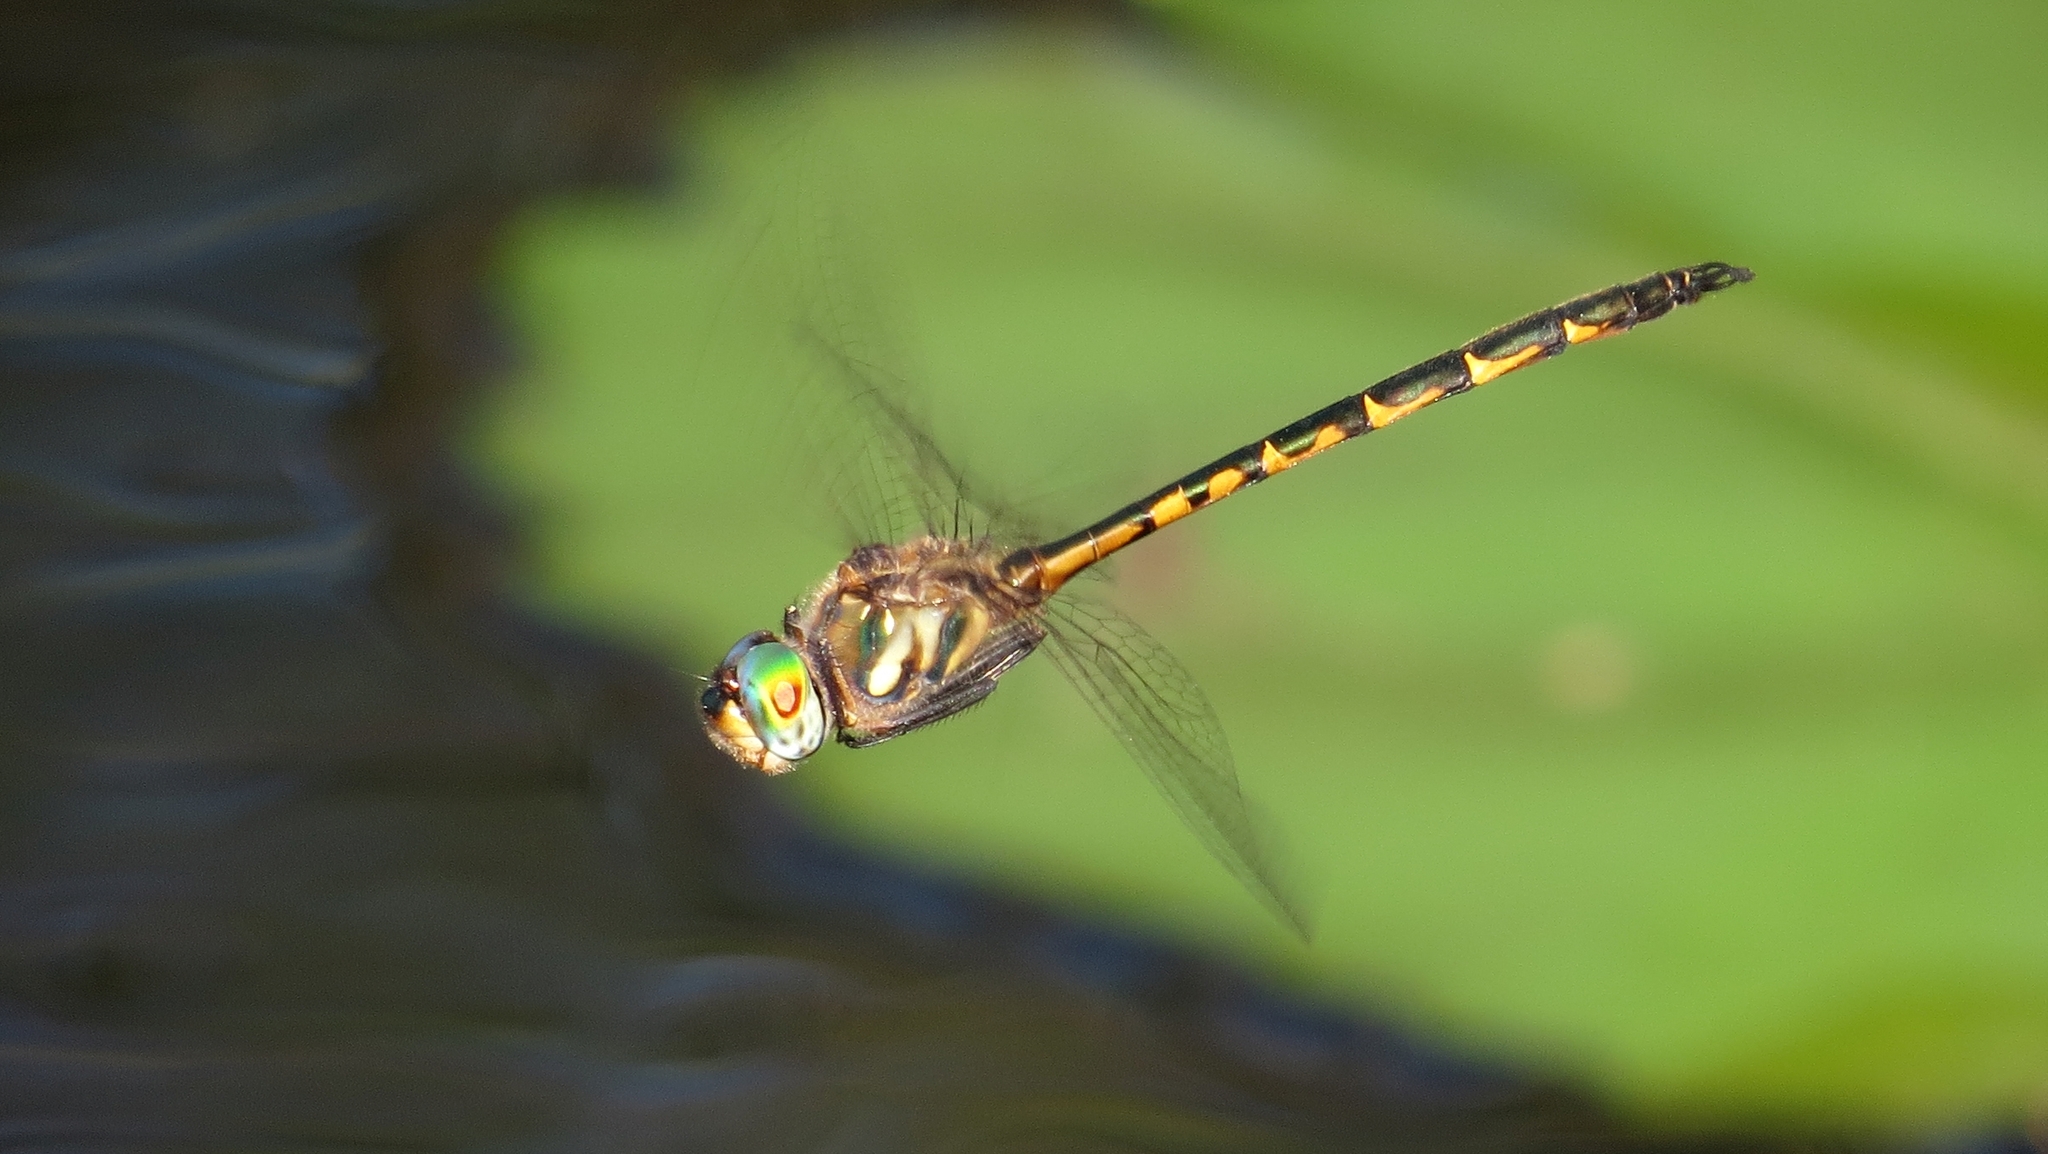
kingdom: Animalia
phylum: Arthropoda
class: Insecta
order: Odonata
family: Corduliidae
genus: Hemicordulia
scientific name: Hemicordulia australiae
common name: Sentry dragonfly
